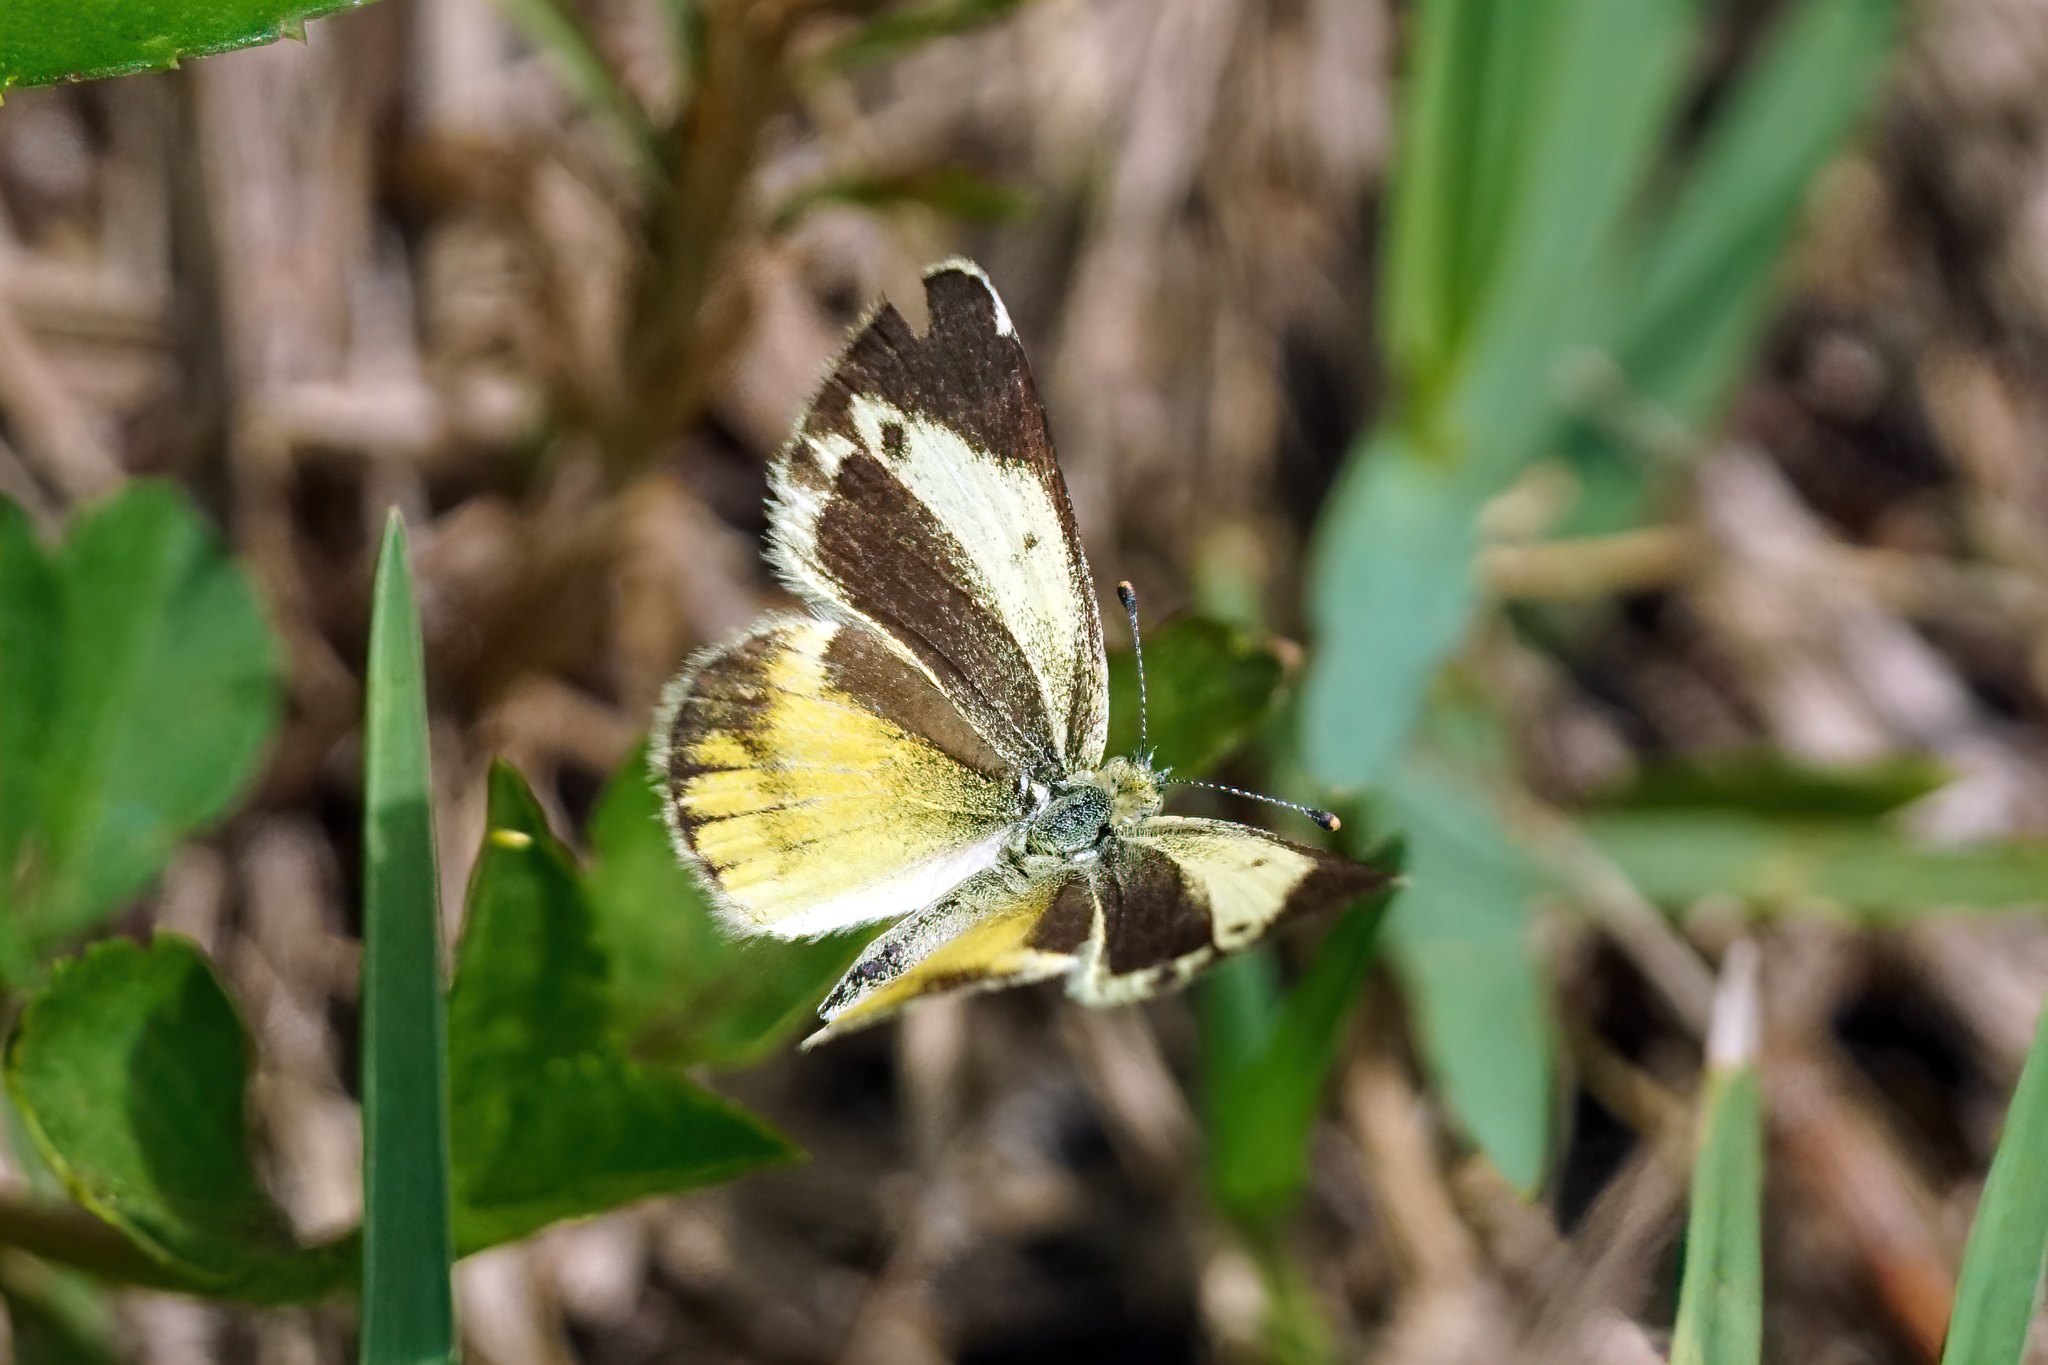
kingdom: Animalia
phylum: Arthropoda
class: Insecta
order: Lepidoptera
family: Pieridae
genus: Nathalis
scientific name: Nathalis iole
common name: Dainty sulphur
